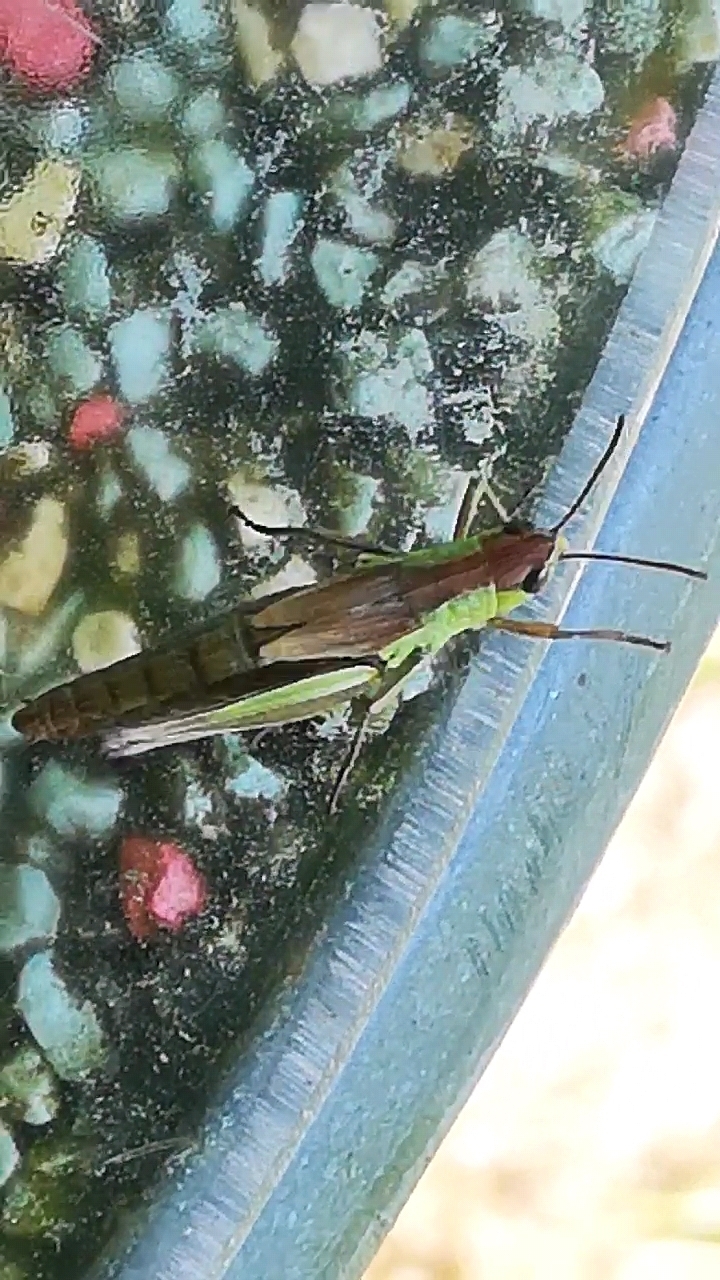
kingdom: Animalia
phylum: Arthropoda
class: Insecta
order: Orthoptera
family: Acrididae
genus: Pseudochorthippus
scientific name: Pseudochorthippus parallelus
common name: Meadow grasshopper
